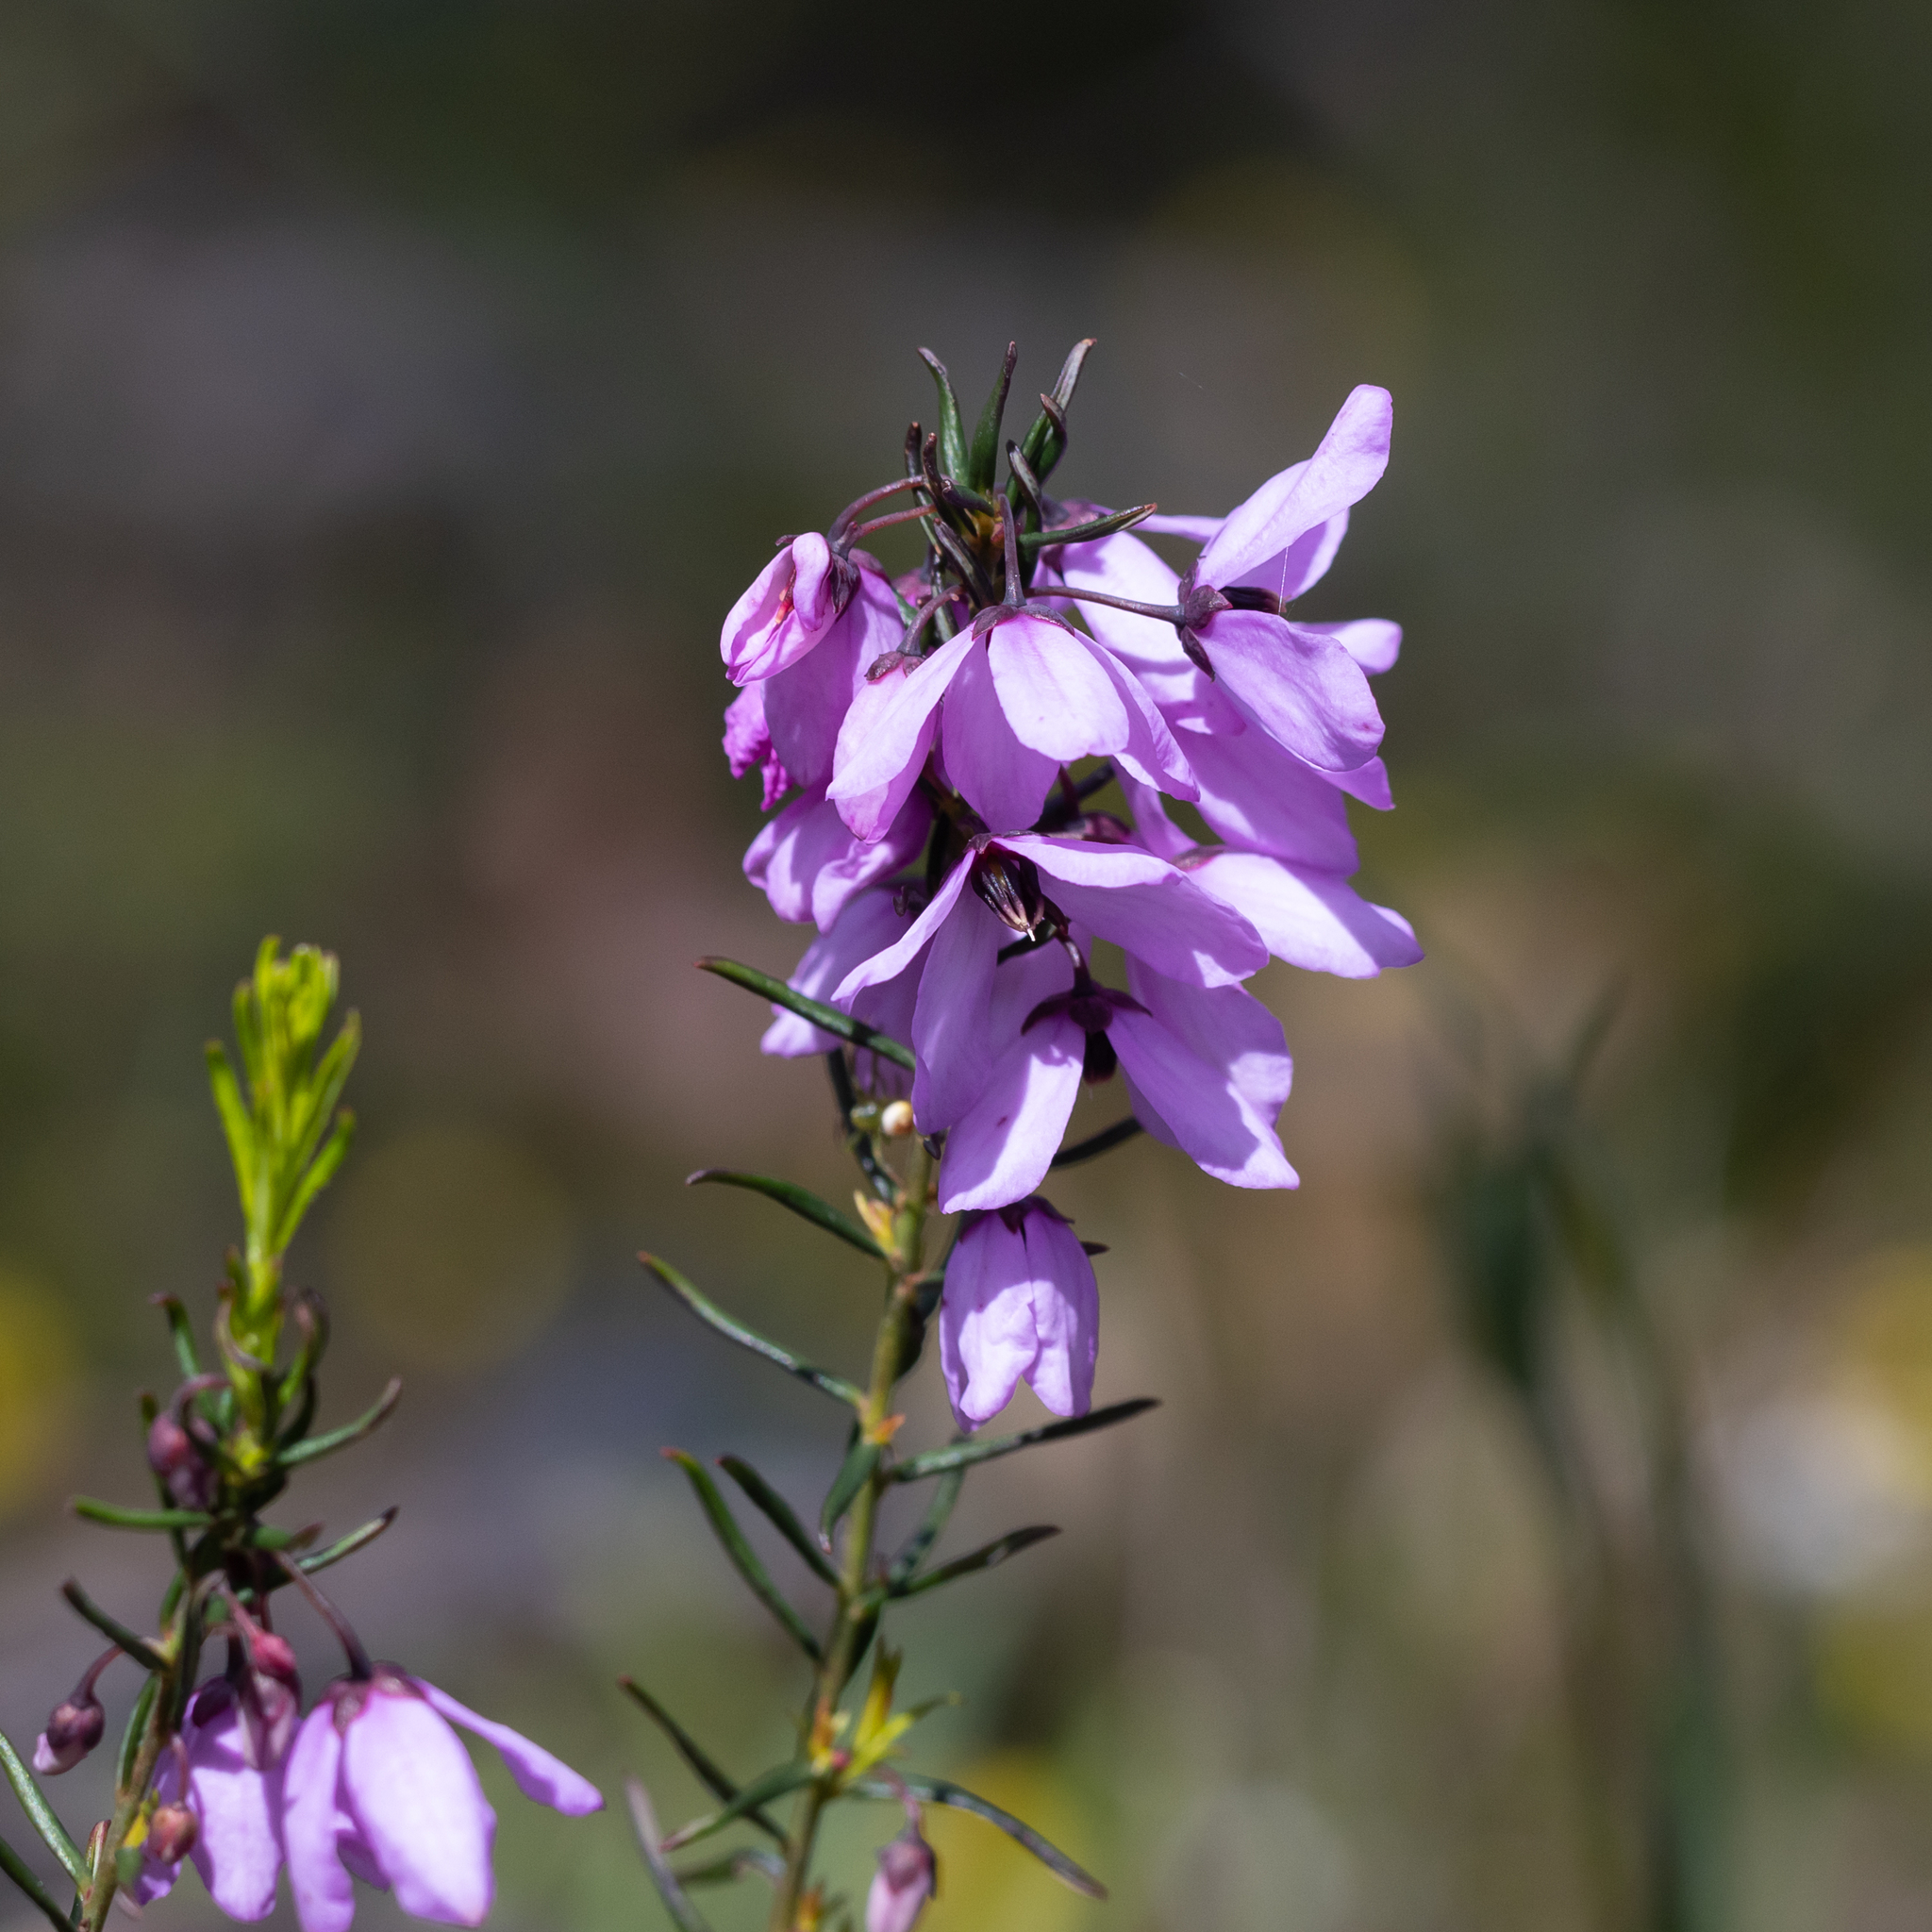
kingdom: Plantae
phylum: Tracheophyta
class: Magnoliopsida
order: Oxalidales
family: Elaeocarpaceae
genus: Tetratheca
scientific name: Tetratheca pilosa
